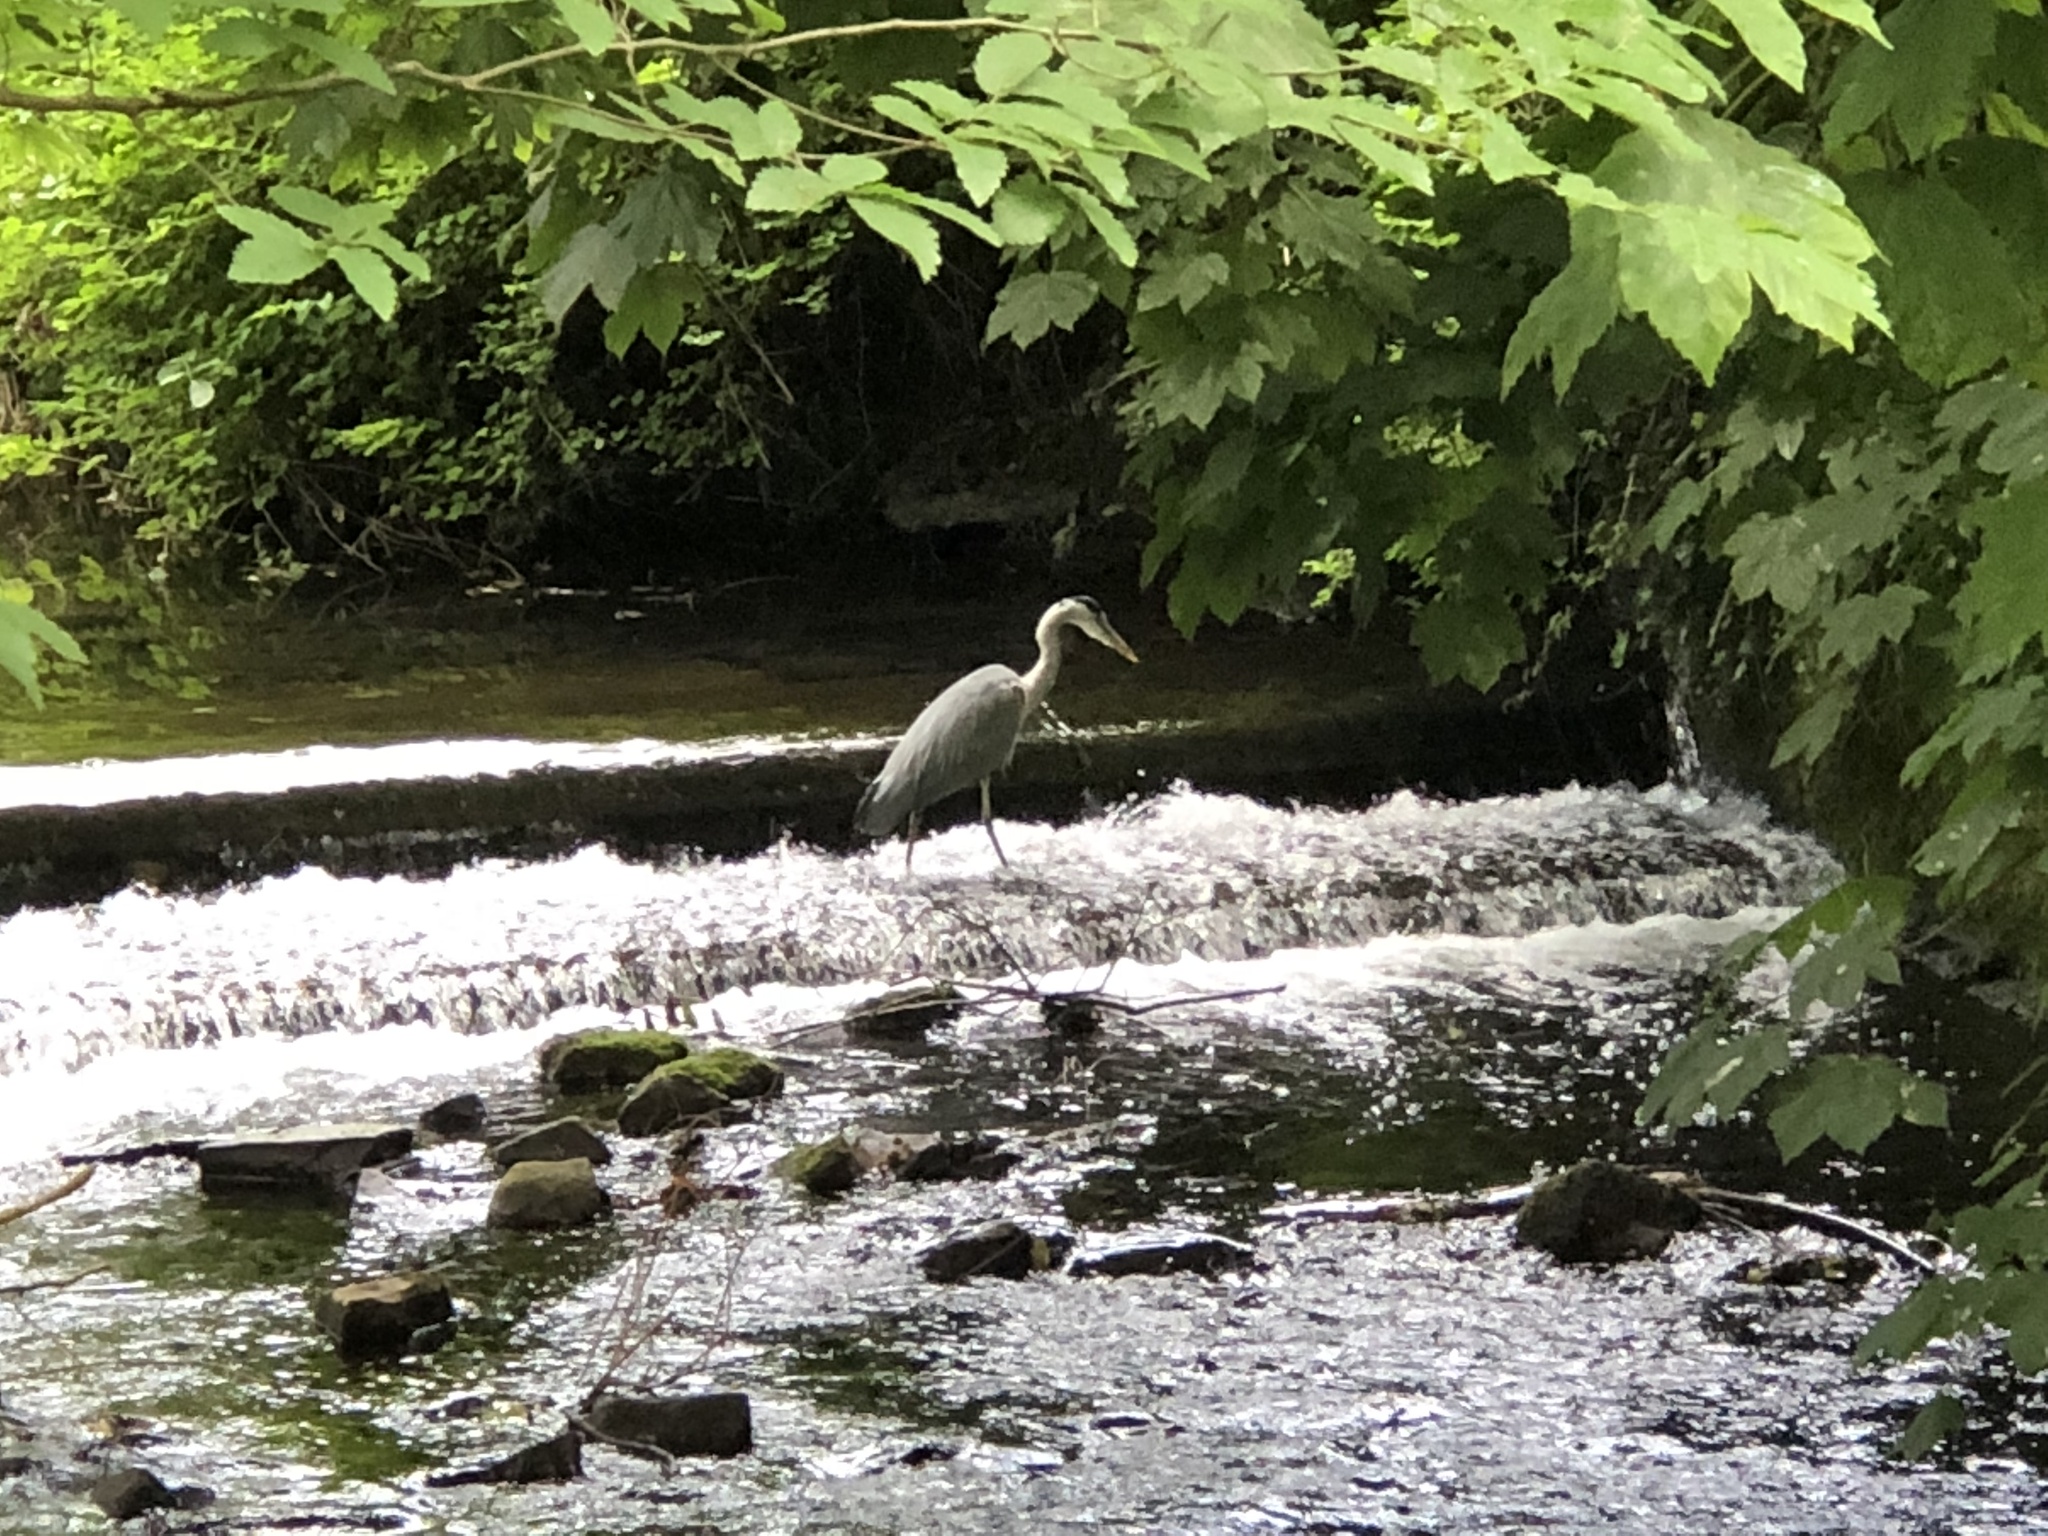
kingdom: Animalia
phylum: Chordata
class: Aves
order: Pelecaniformes
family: Ardeidae
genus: Ardea
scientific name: Ardea cinerea
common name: Grey heron
